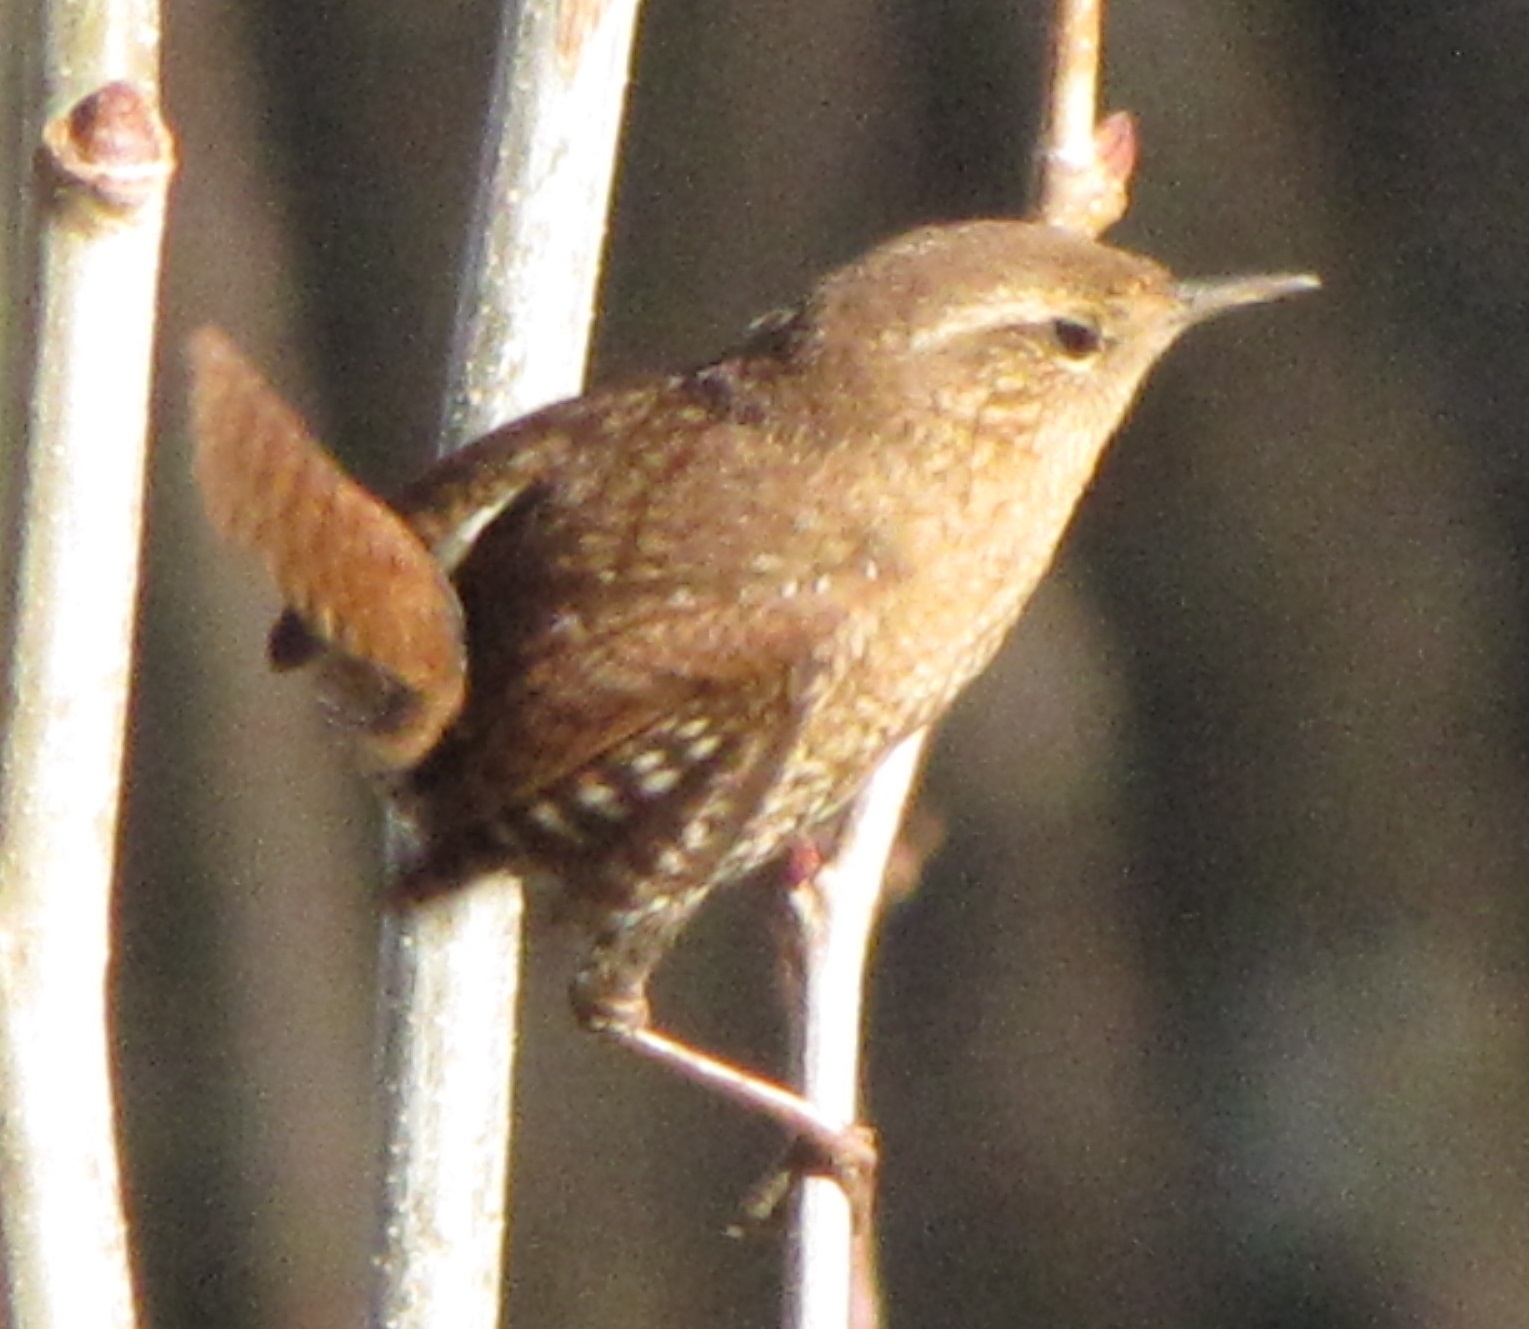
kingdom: Animalia
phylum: Chordata
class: Aves
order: Passeriformes
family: Troglodytidae
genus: Troglodytes
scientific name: Troglodytes hiemalis
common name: Winter wren
